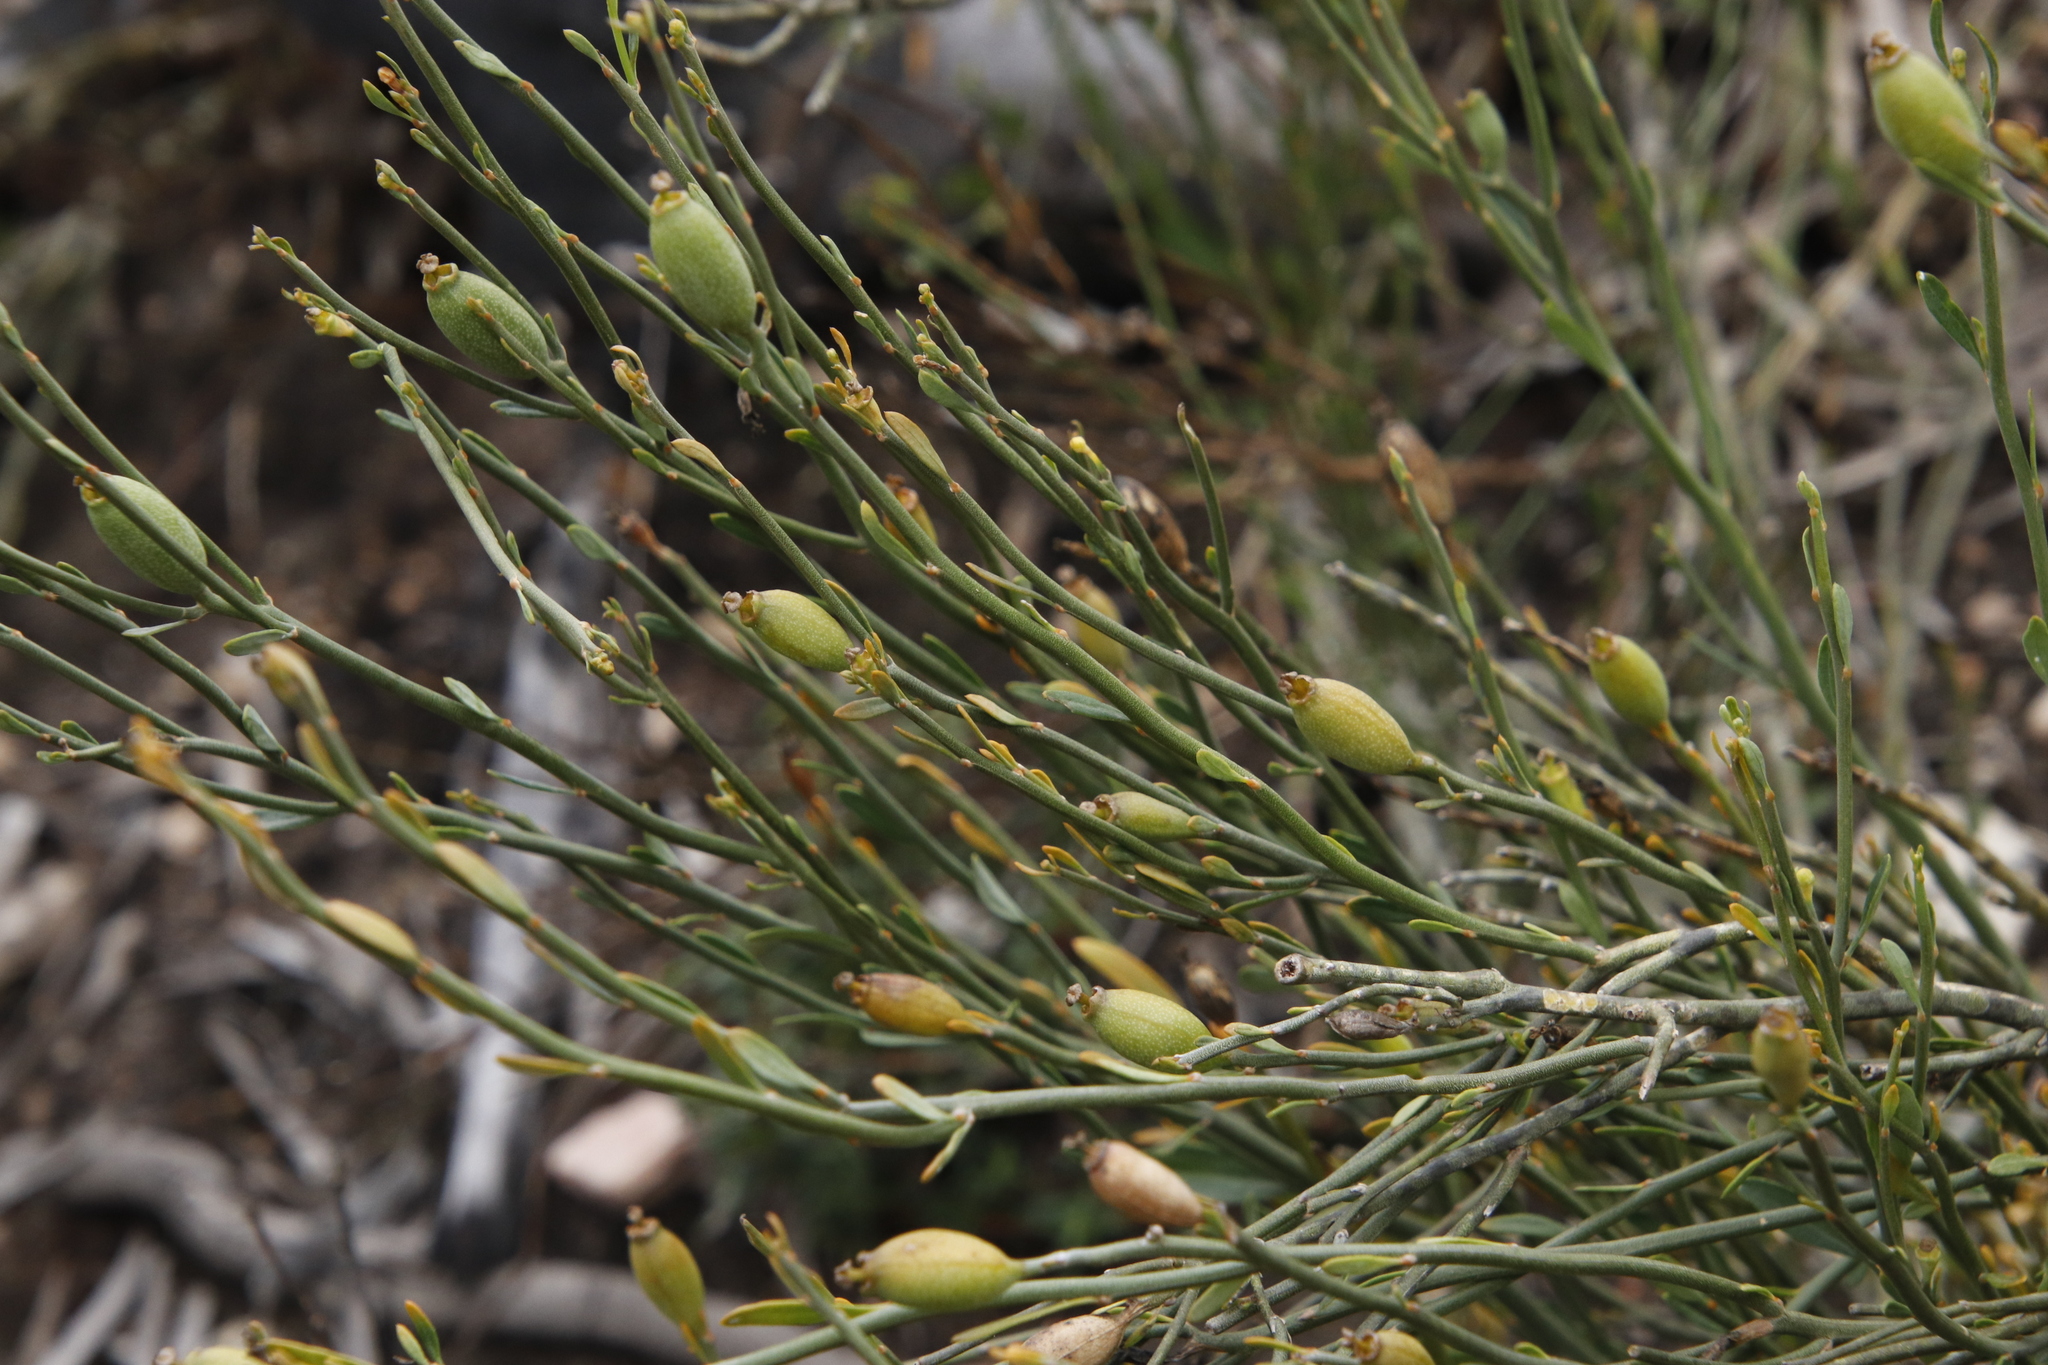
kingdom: Plantae
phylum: Tracheophyta
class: Magnoliopsida
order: Solanales
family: Montiniaceae
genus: Montinia
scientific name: Montinia caryophyllacea
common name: Wild clove-bush
